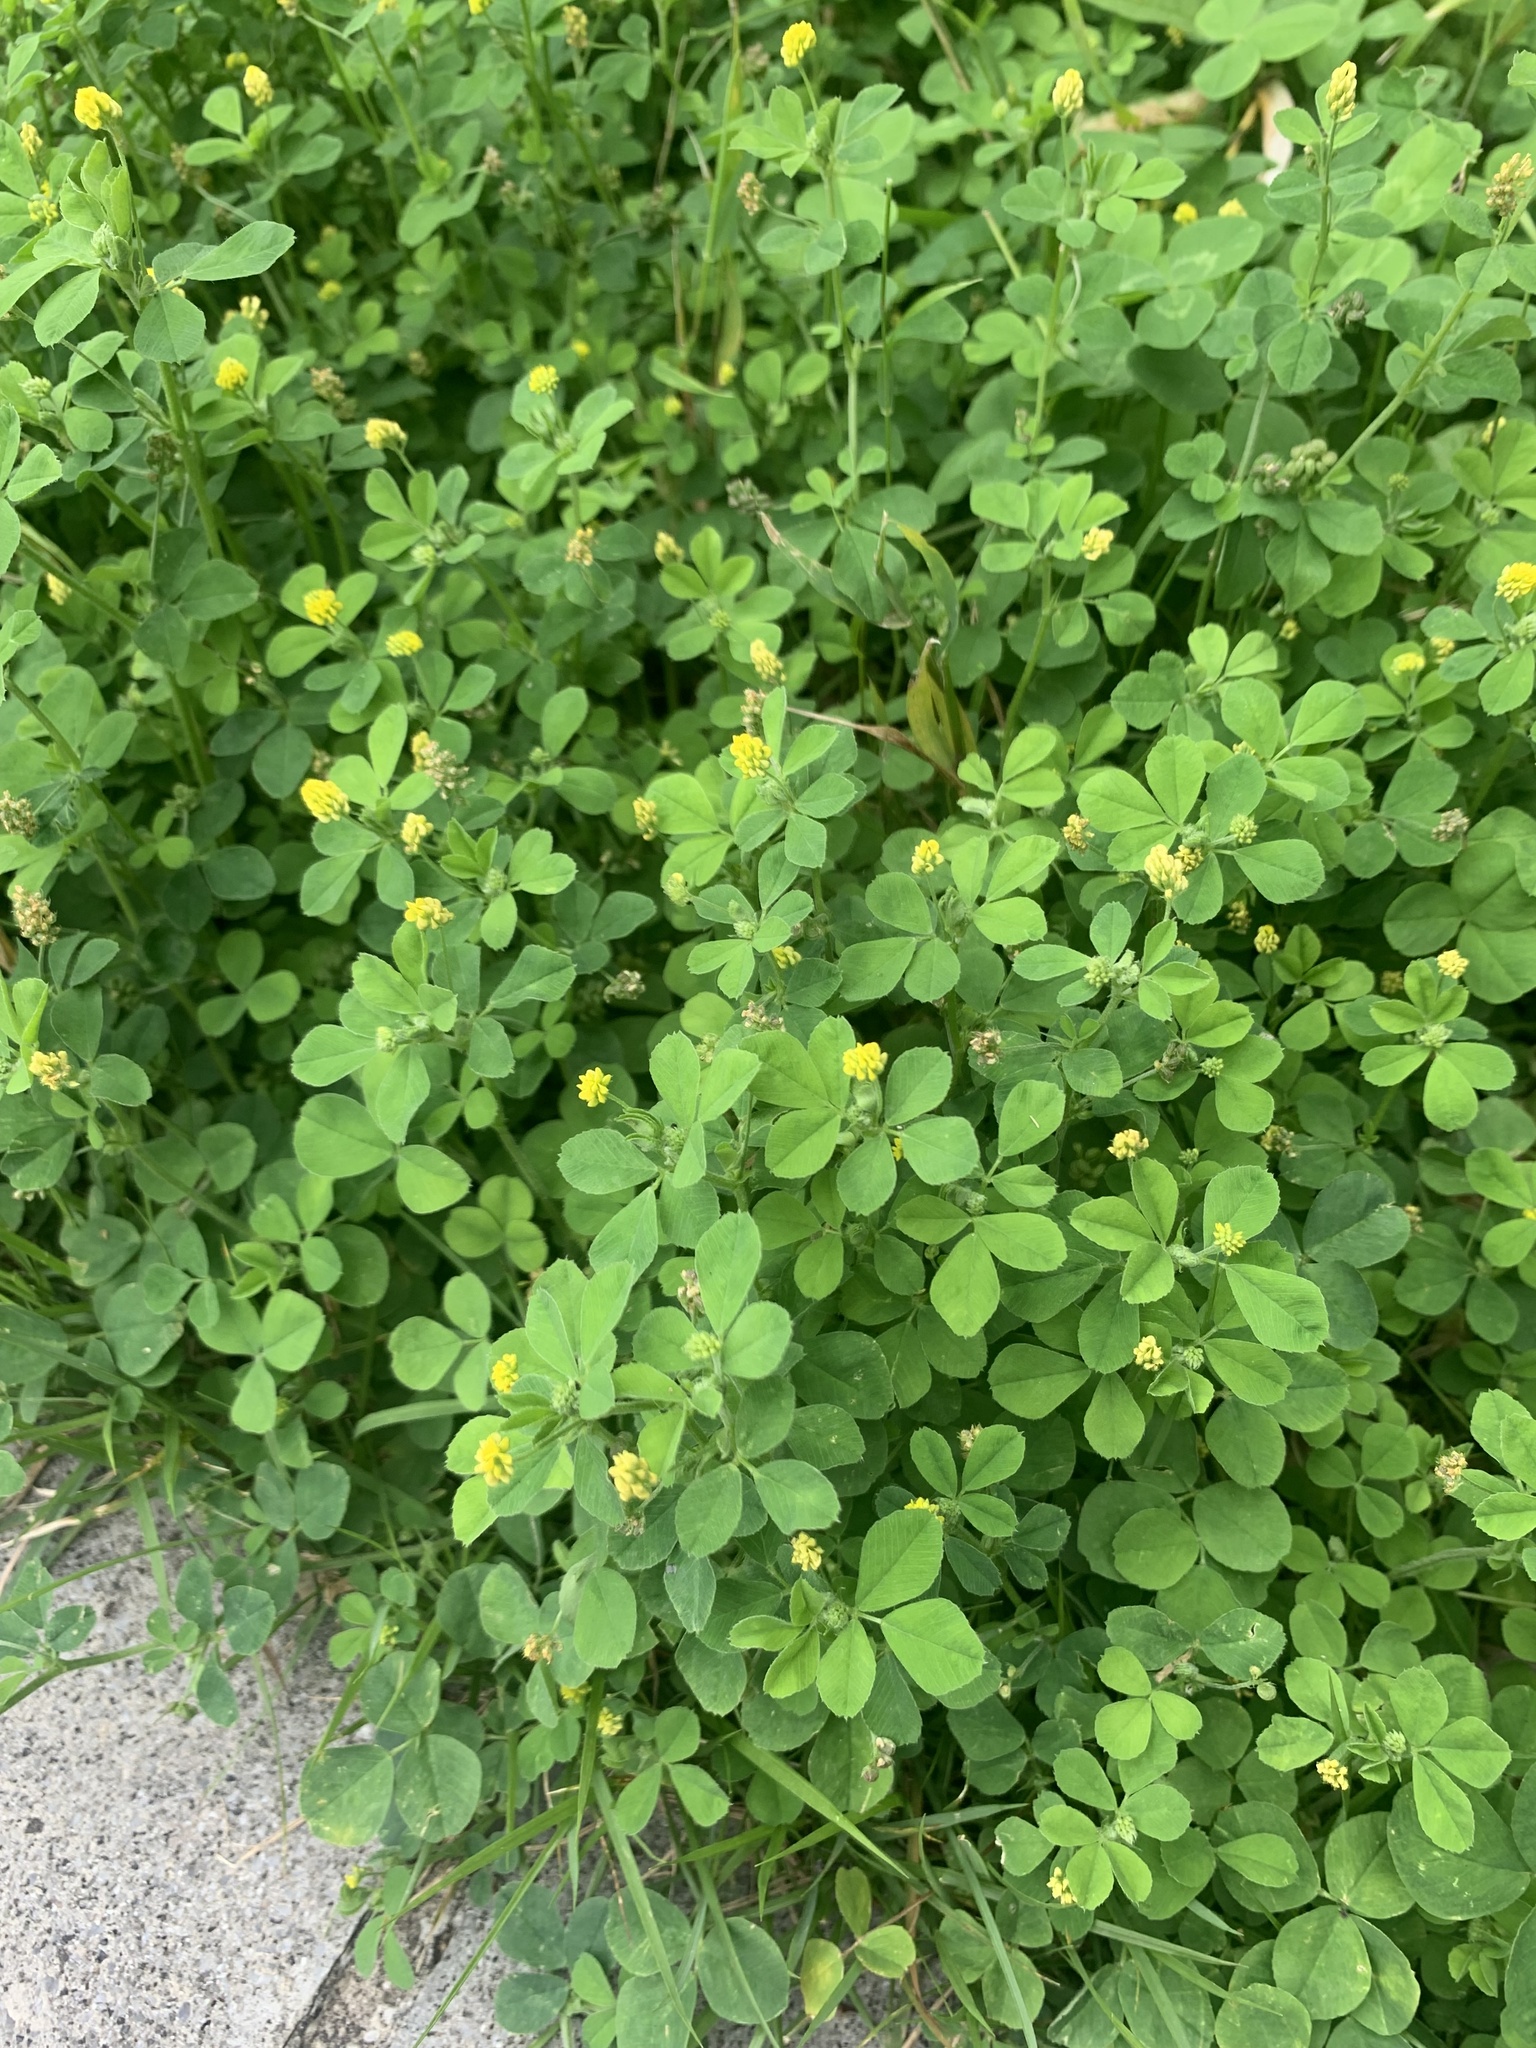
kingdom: Plantae
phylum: Tracheophyta
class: Magnoliopsida
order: Fabales
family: Fabaceae
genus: Medicago
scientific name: Medicago lupulina
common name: Black medick
